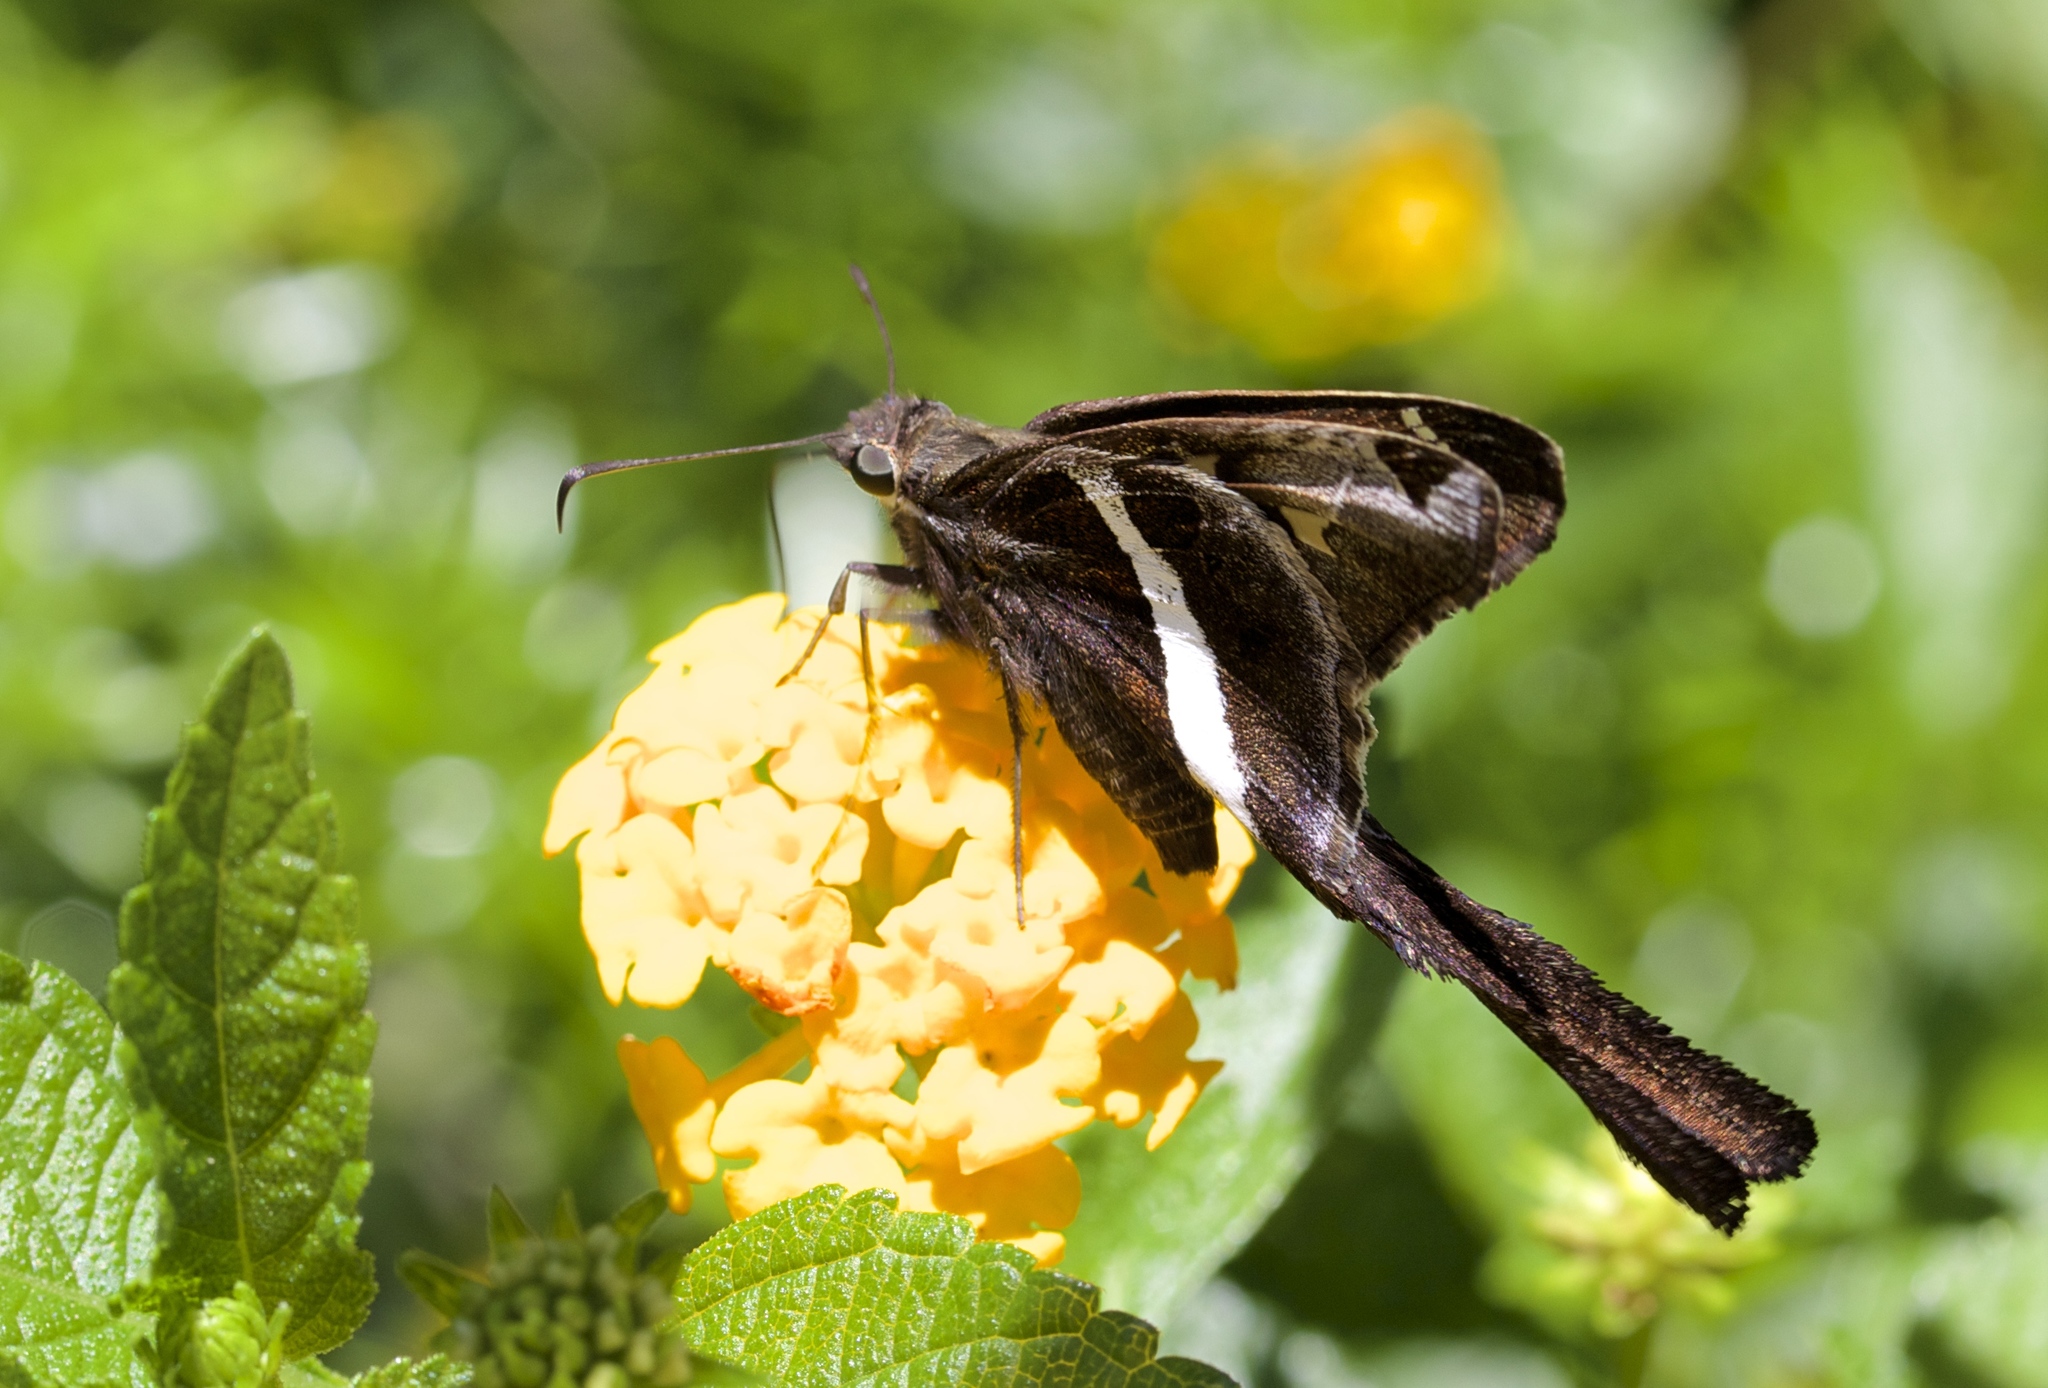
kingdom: Animalia
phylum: Arthropoda
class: Insecta
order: Lepidoptera
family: Hesperiidae
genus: Chioides
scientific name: Chioides catillus
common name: Silverbanded skipper
